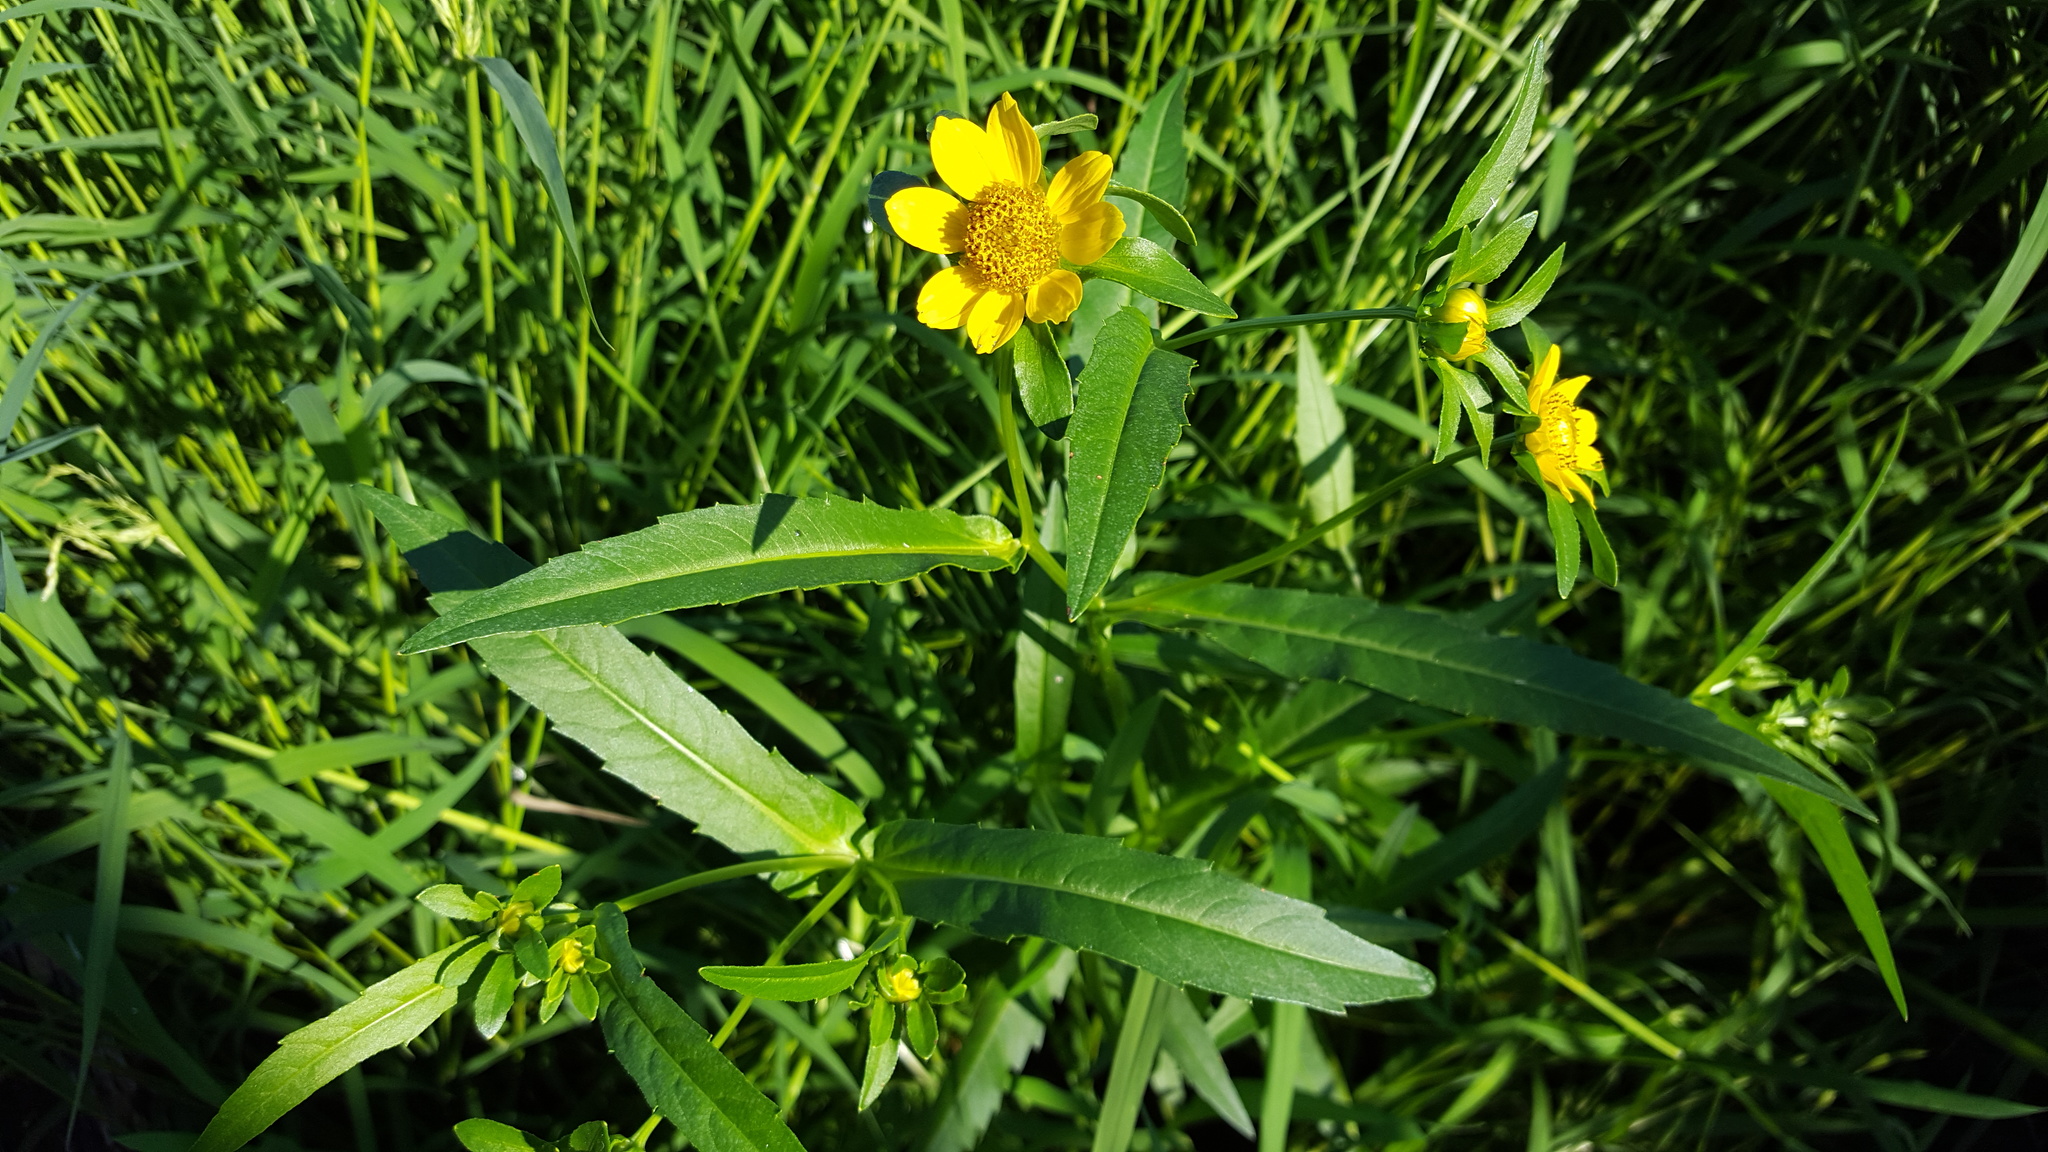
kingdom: Plantae
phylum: Tracheophyta
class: Magnoliopsida
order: Asterales
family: Asteraceae
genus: Bidens
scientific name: Bidens cernua
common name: Nodding bur-marigold
